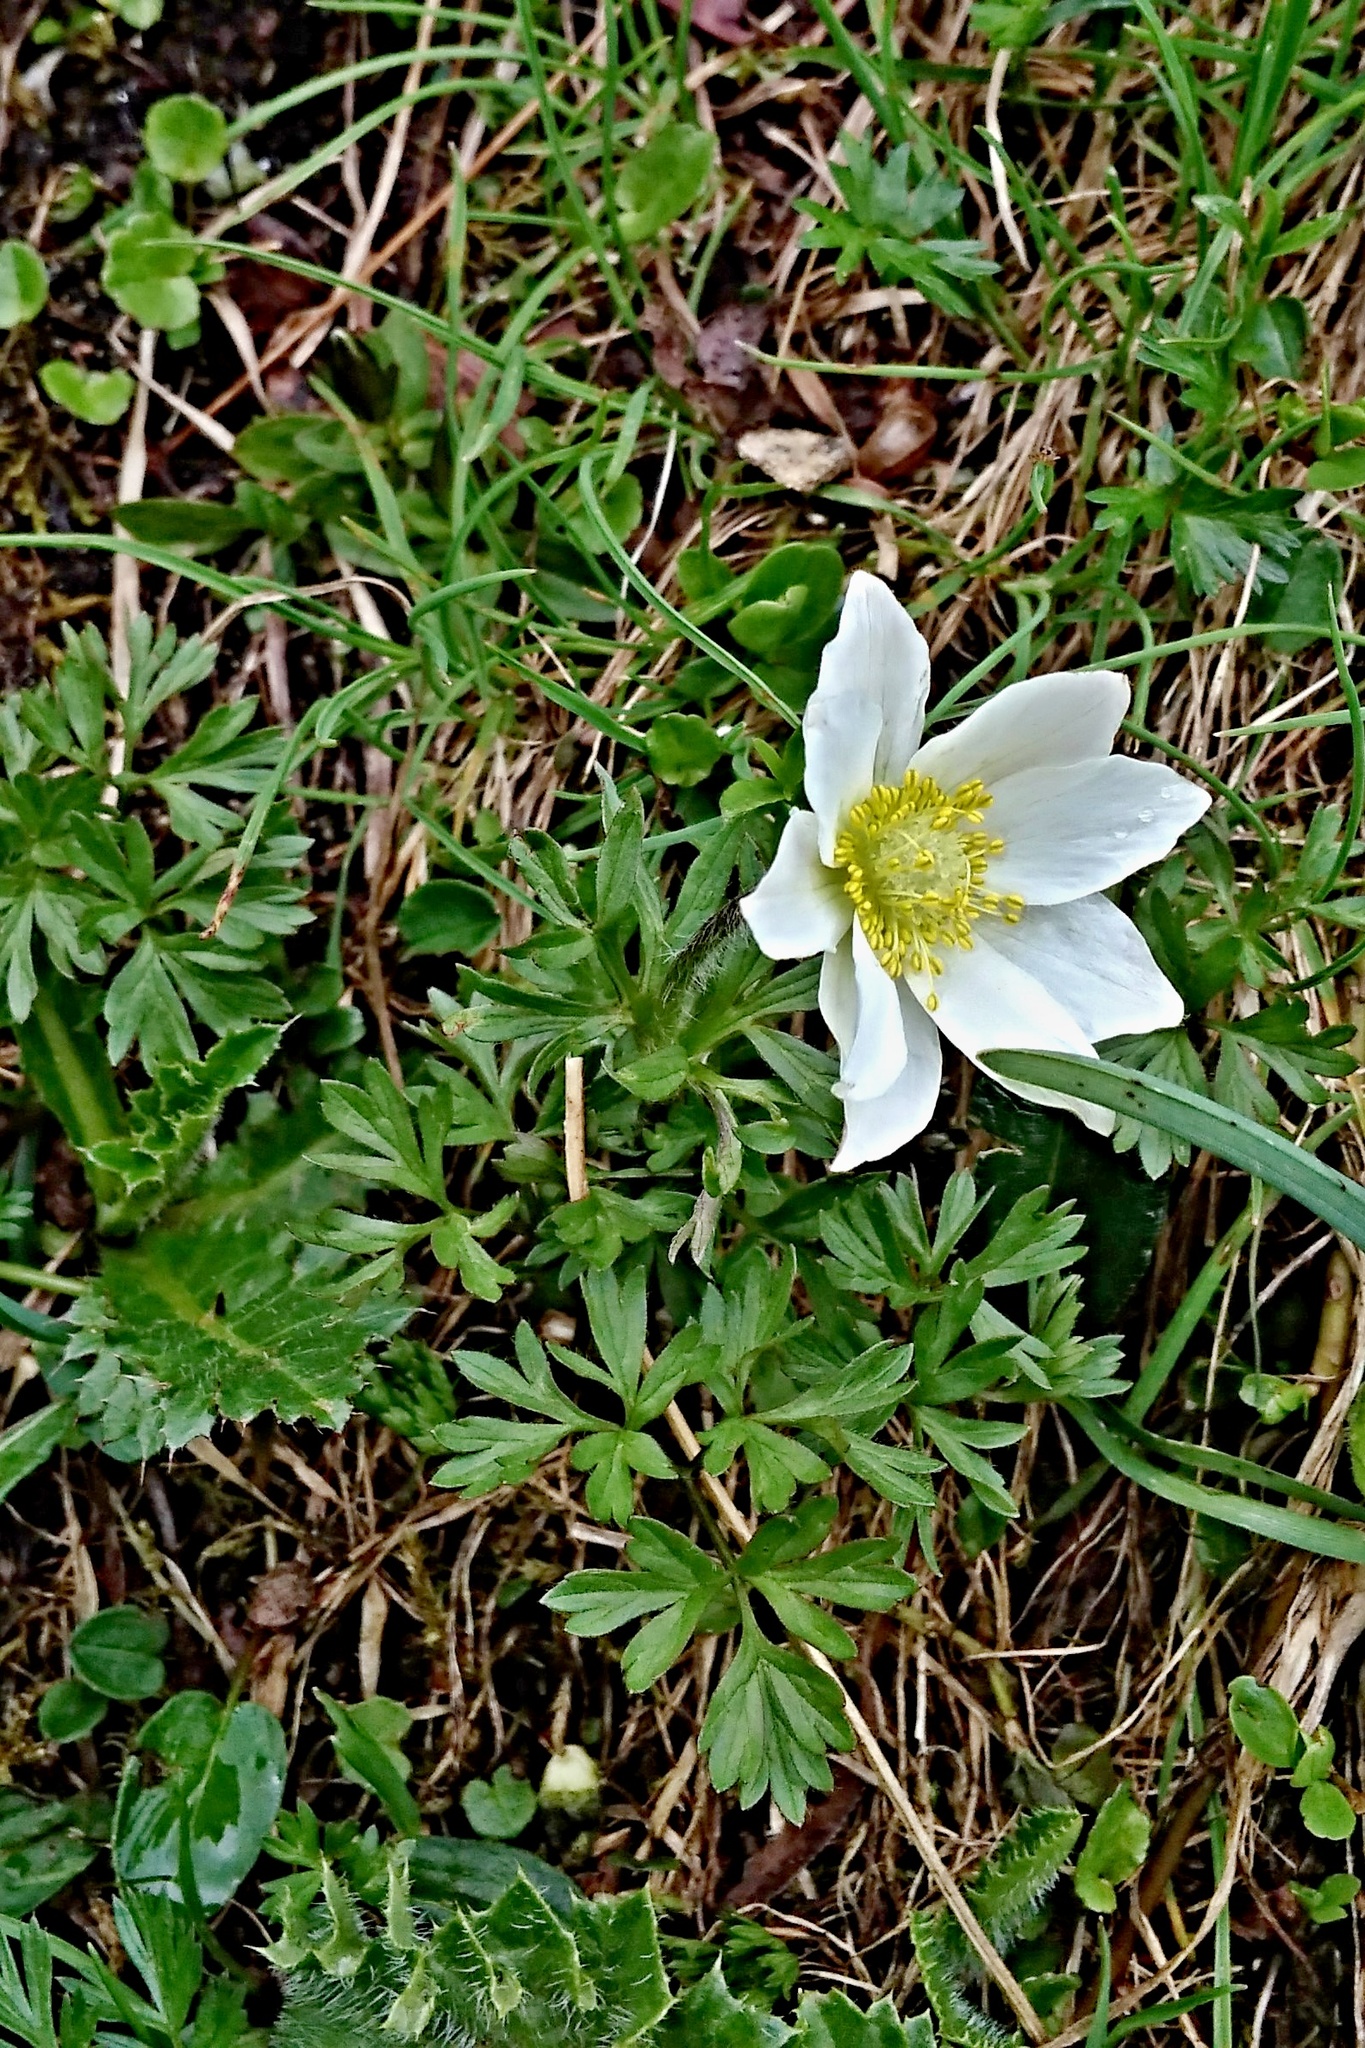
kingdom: Plantae
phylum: Tracheophyta
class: Magnoliopsida
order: Ranunculales
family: Ranunculaceae
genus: Pulsatilla
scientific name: Pulsatilla alpina
